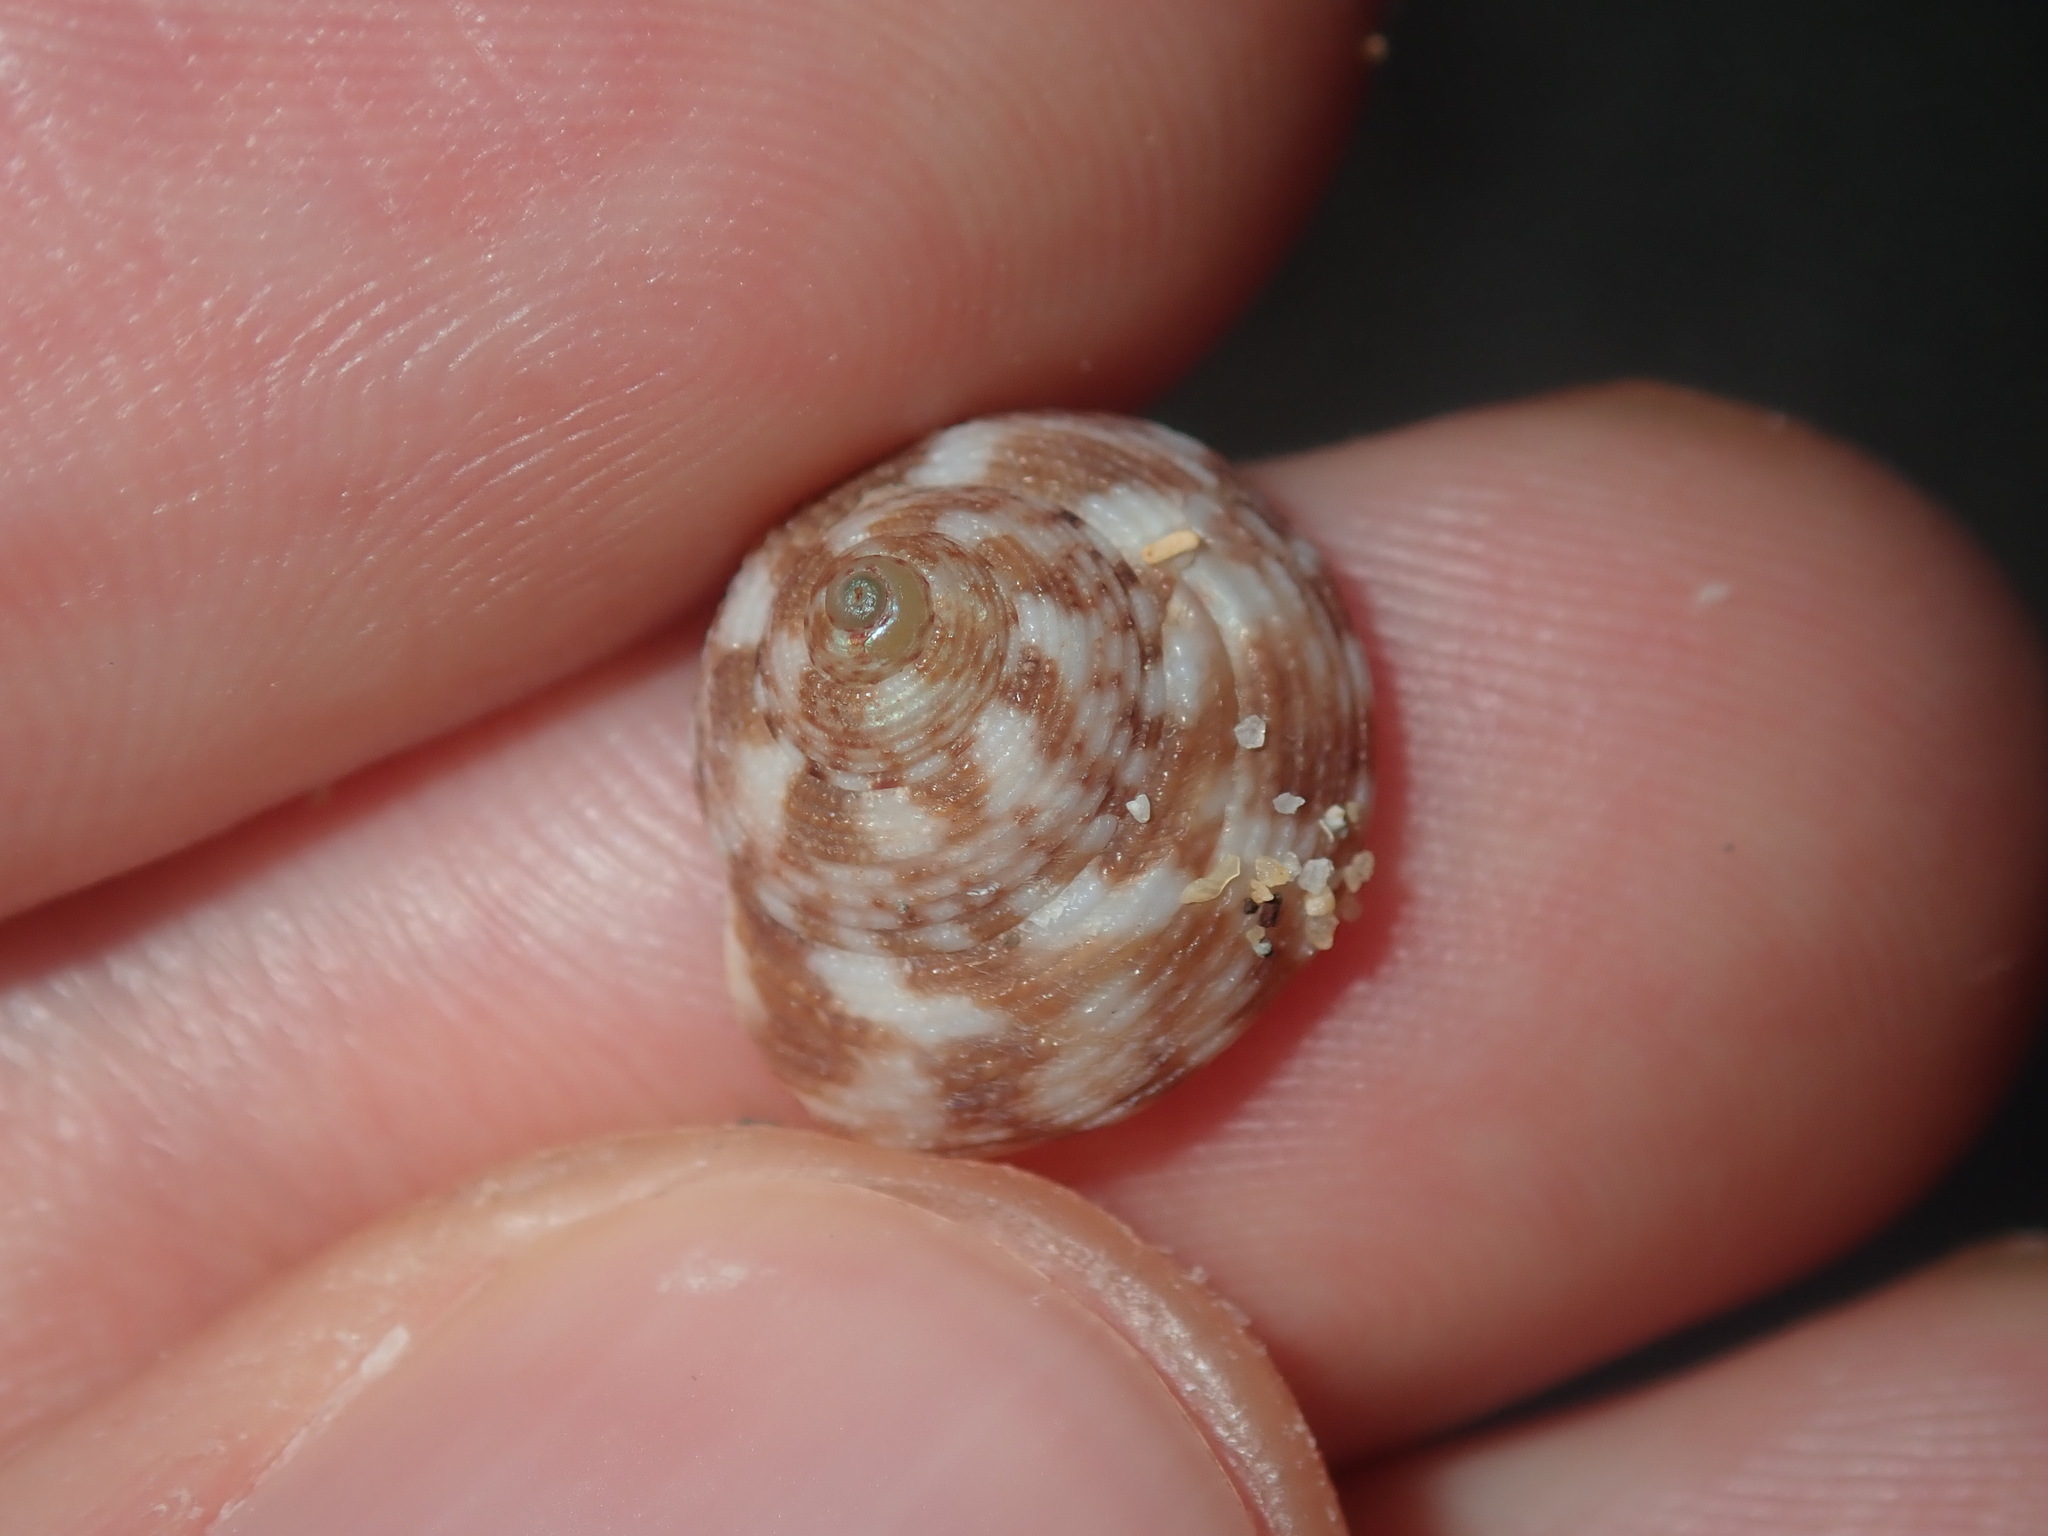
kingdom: Animalia
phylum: Mollusca
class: Gastropoda
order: Trochida
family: Trochidae
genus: Clanculus
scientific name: Clanculus brunneus
